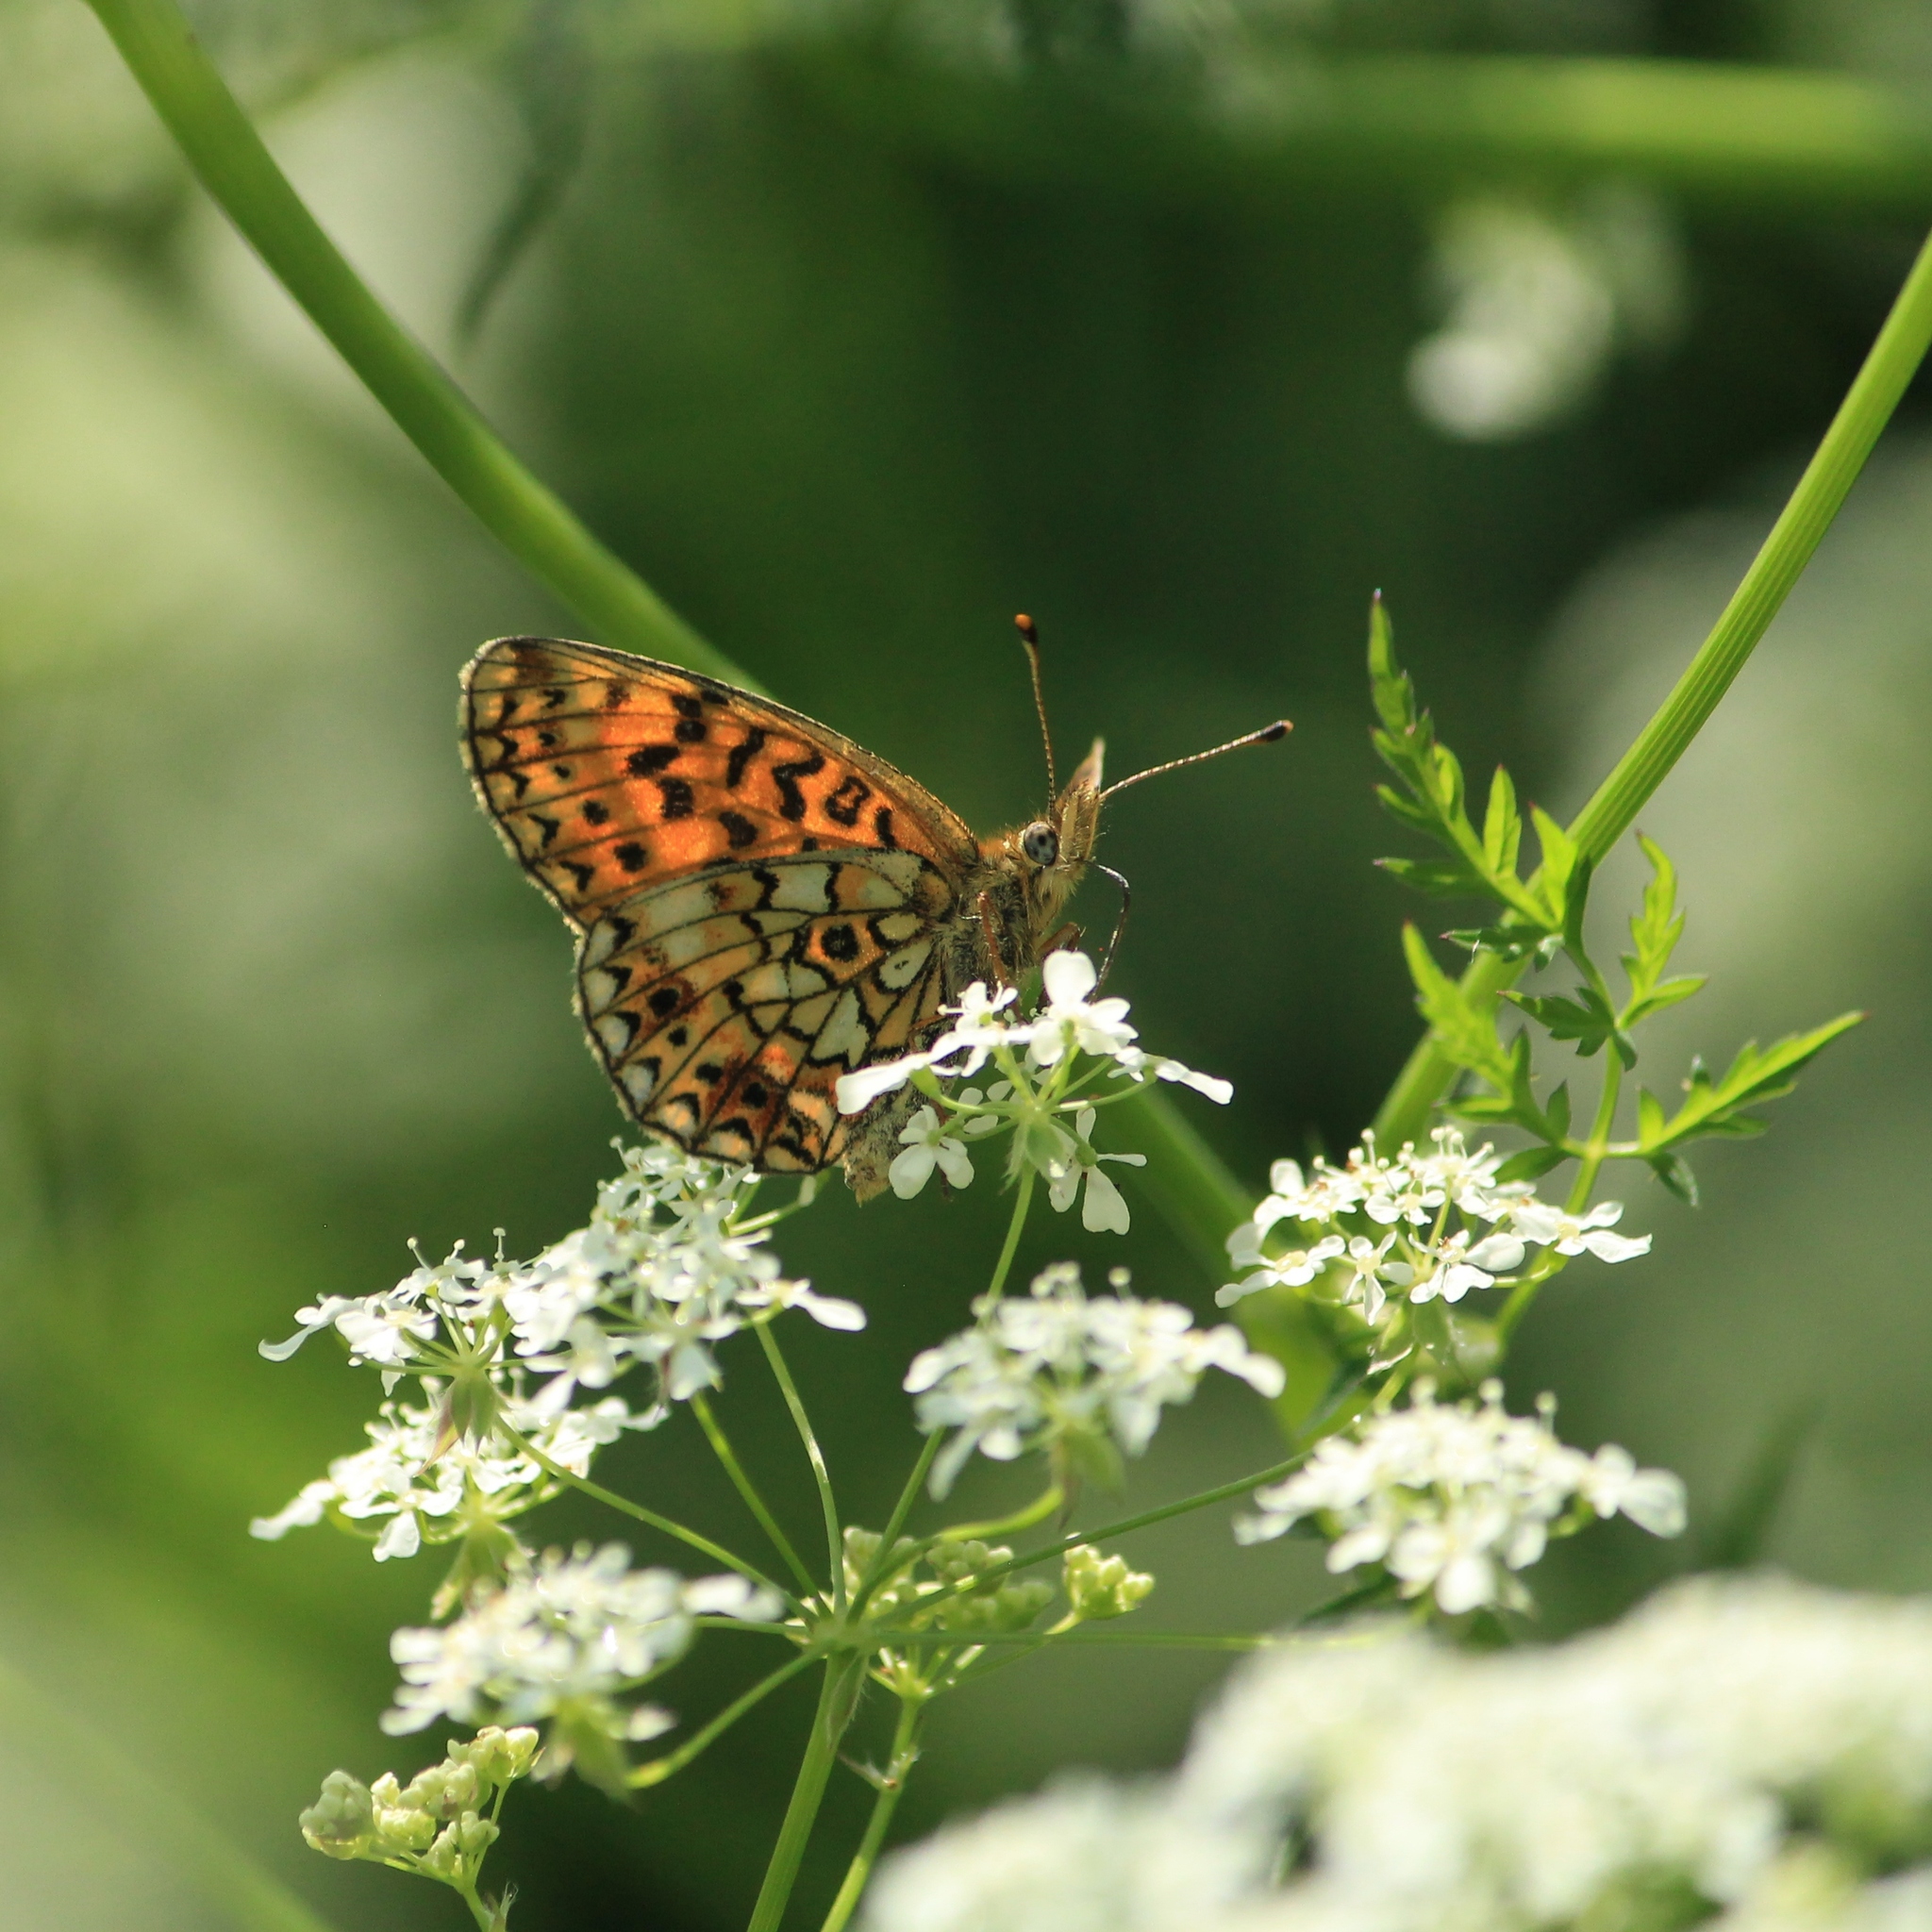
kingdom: Animalia
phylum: Arthropoda
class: Insecta
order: Lepidoptera
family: Nymphalidae
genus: Boloria
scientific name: Boloria selene
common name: Small pearl-bordered fritillary
